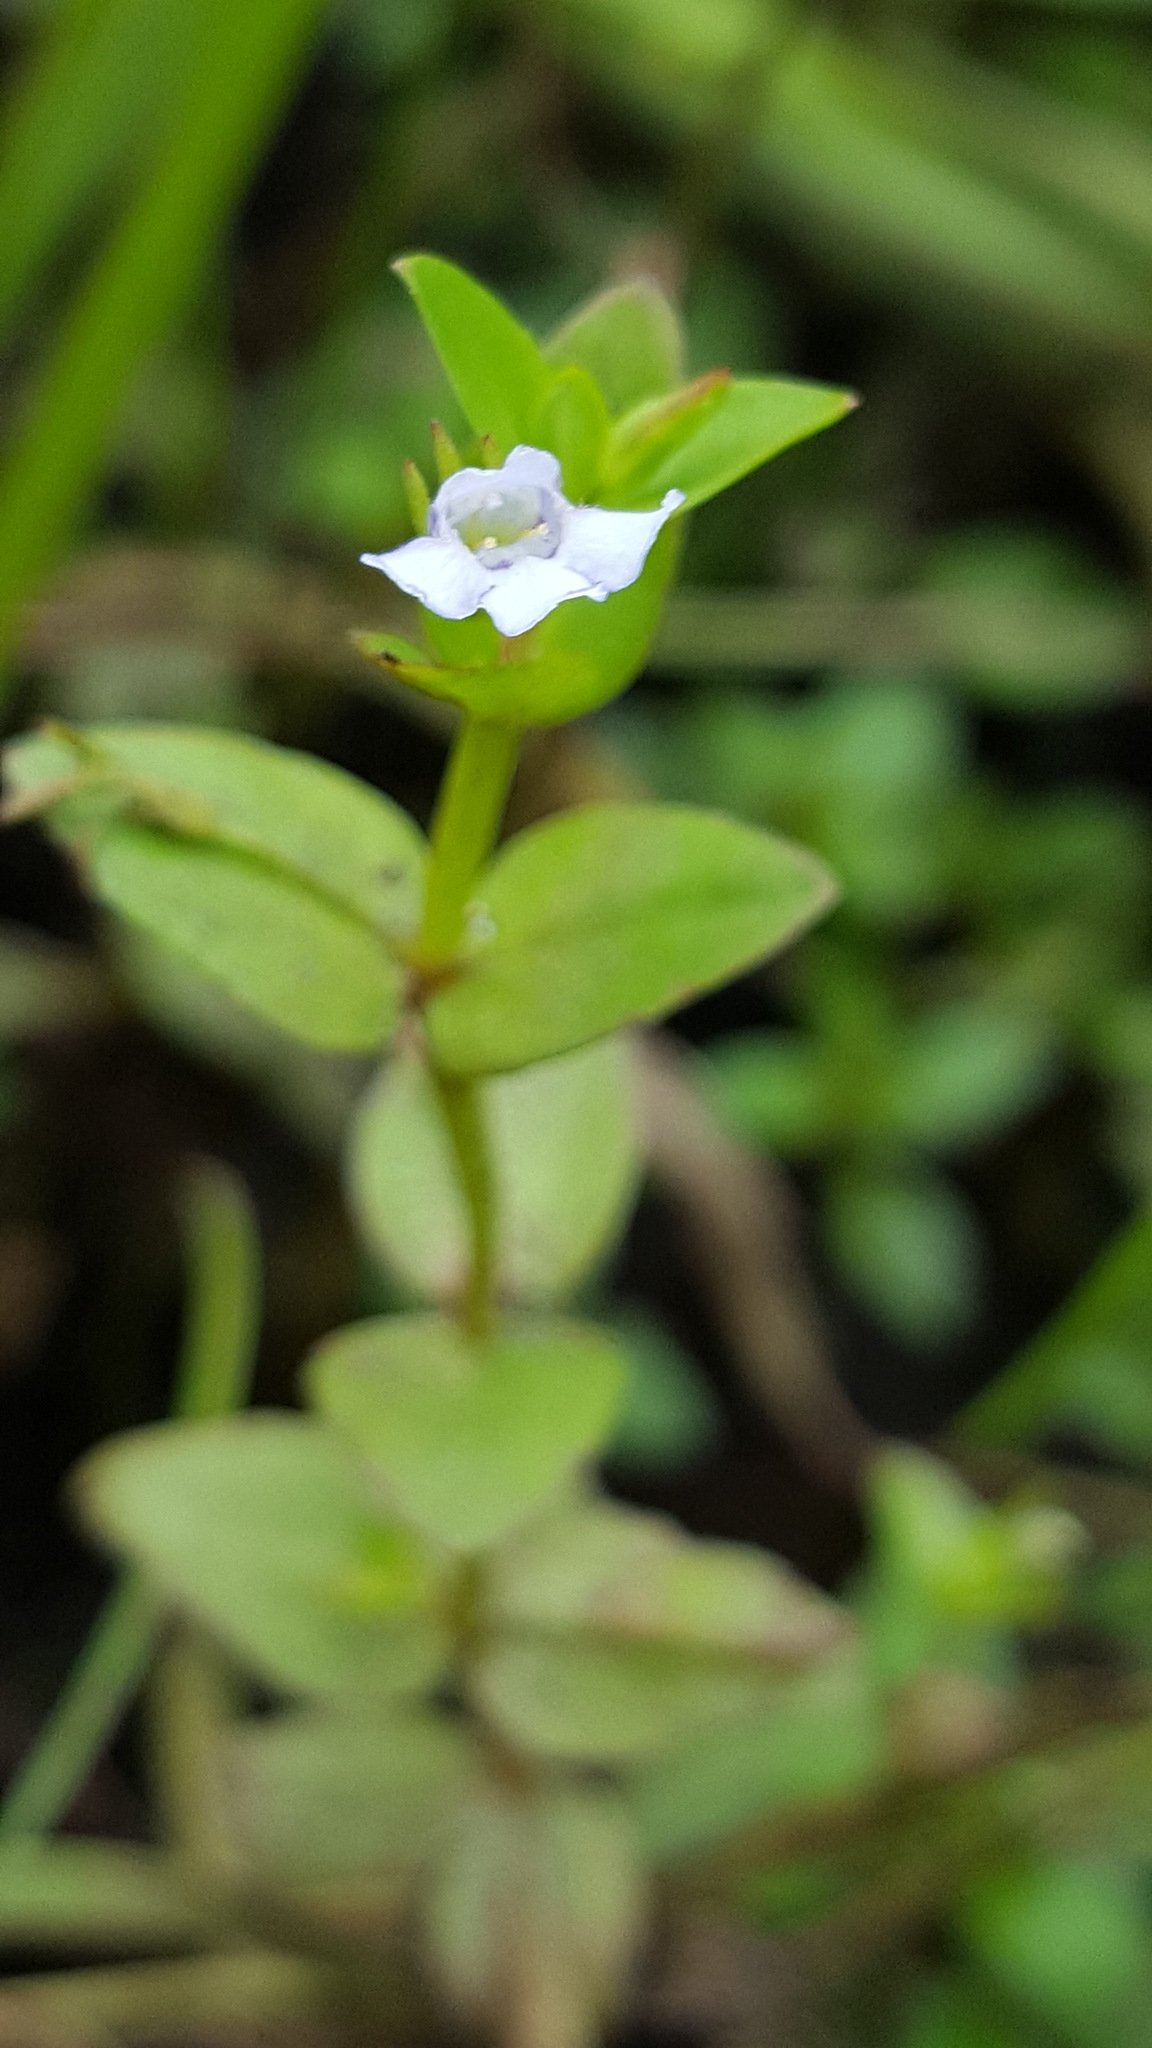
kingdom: Plantae
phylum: Tracheophyta
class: Magnoliopsida
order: Lamiales
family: Linderniaceae
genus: Lindernia
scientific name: Lindernia dubia
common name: Annual false pimpernel
